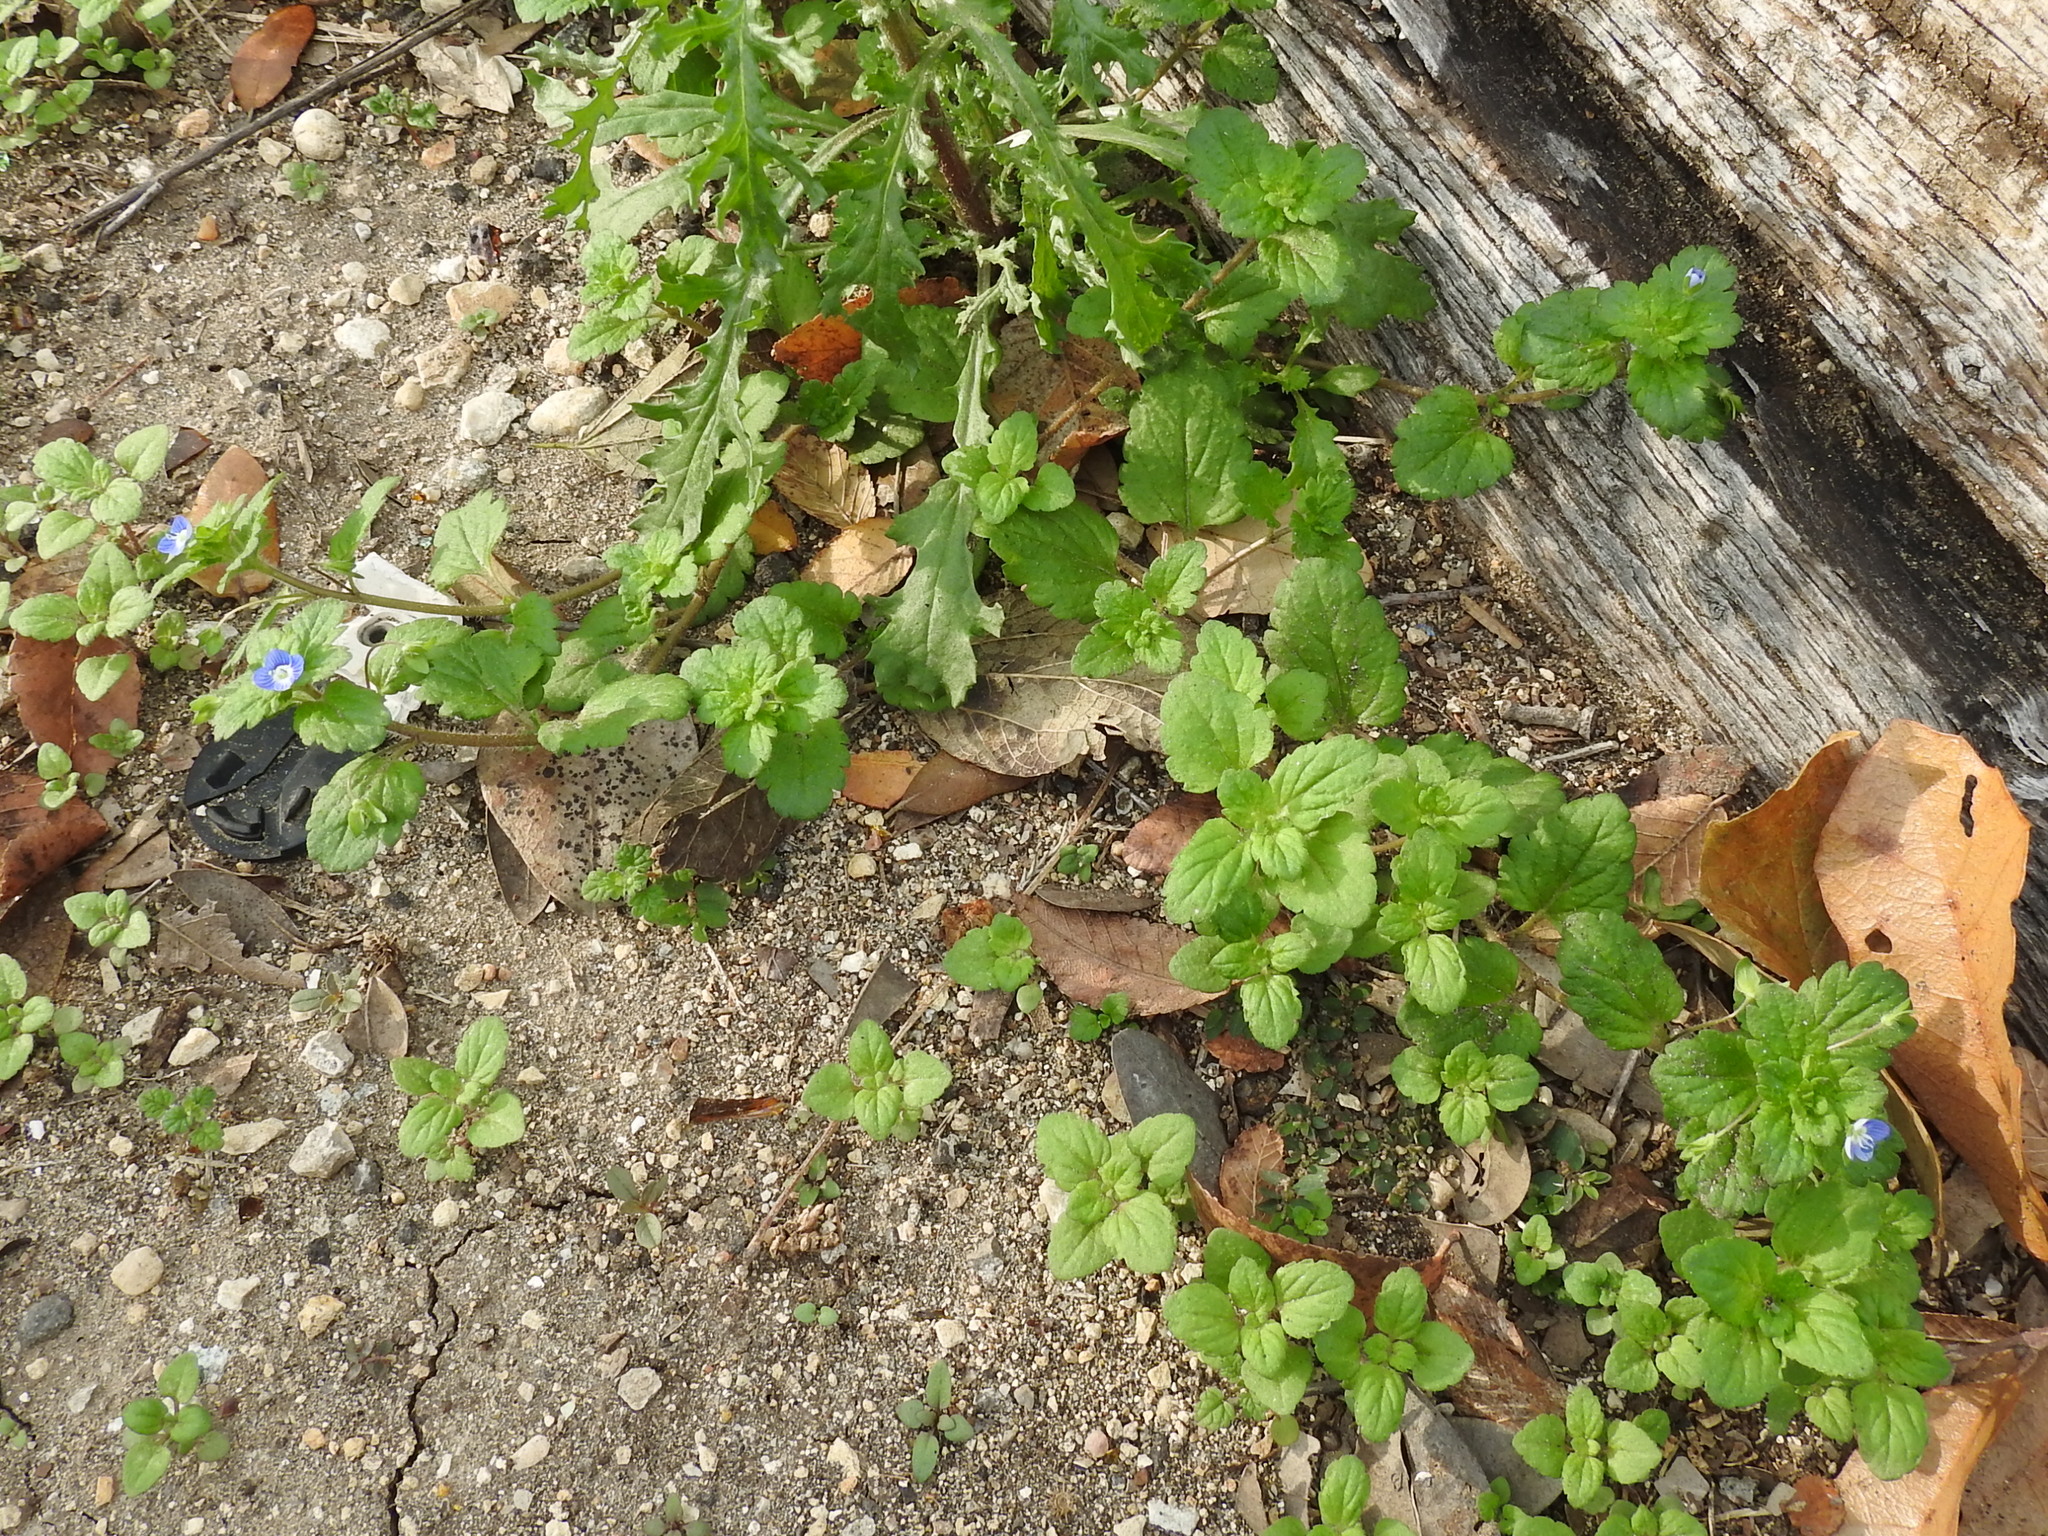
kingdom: Plantae
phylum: Tracheophyta
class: Magnoliopsida
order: Lamiales
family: Plantaginaceae
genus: Veronica
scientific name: Veronica persica
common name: Common field-speedwell
